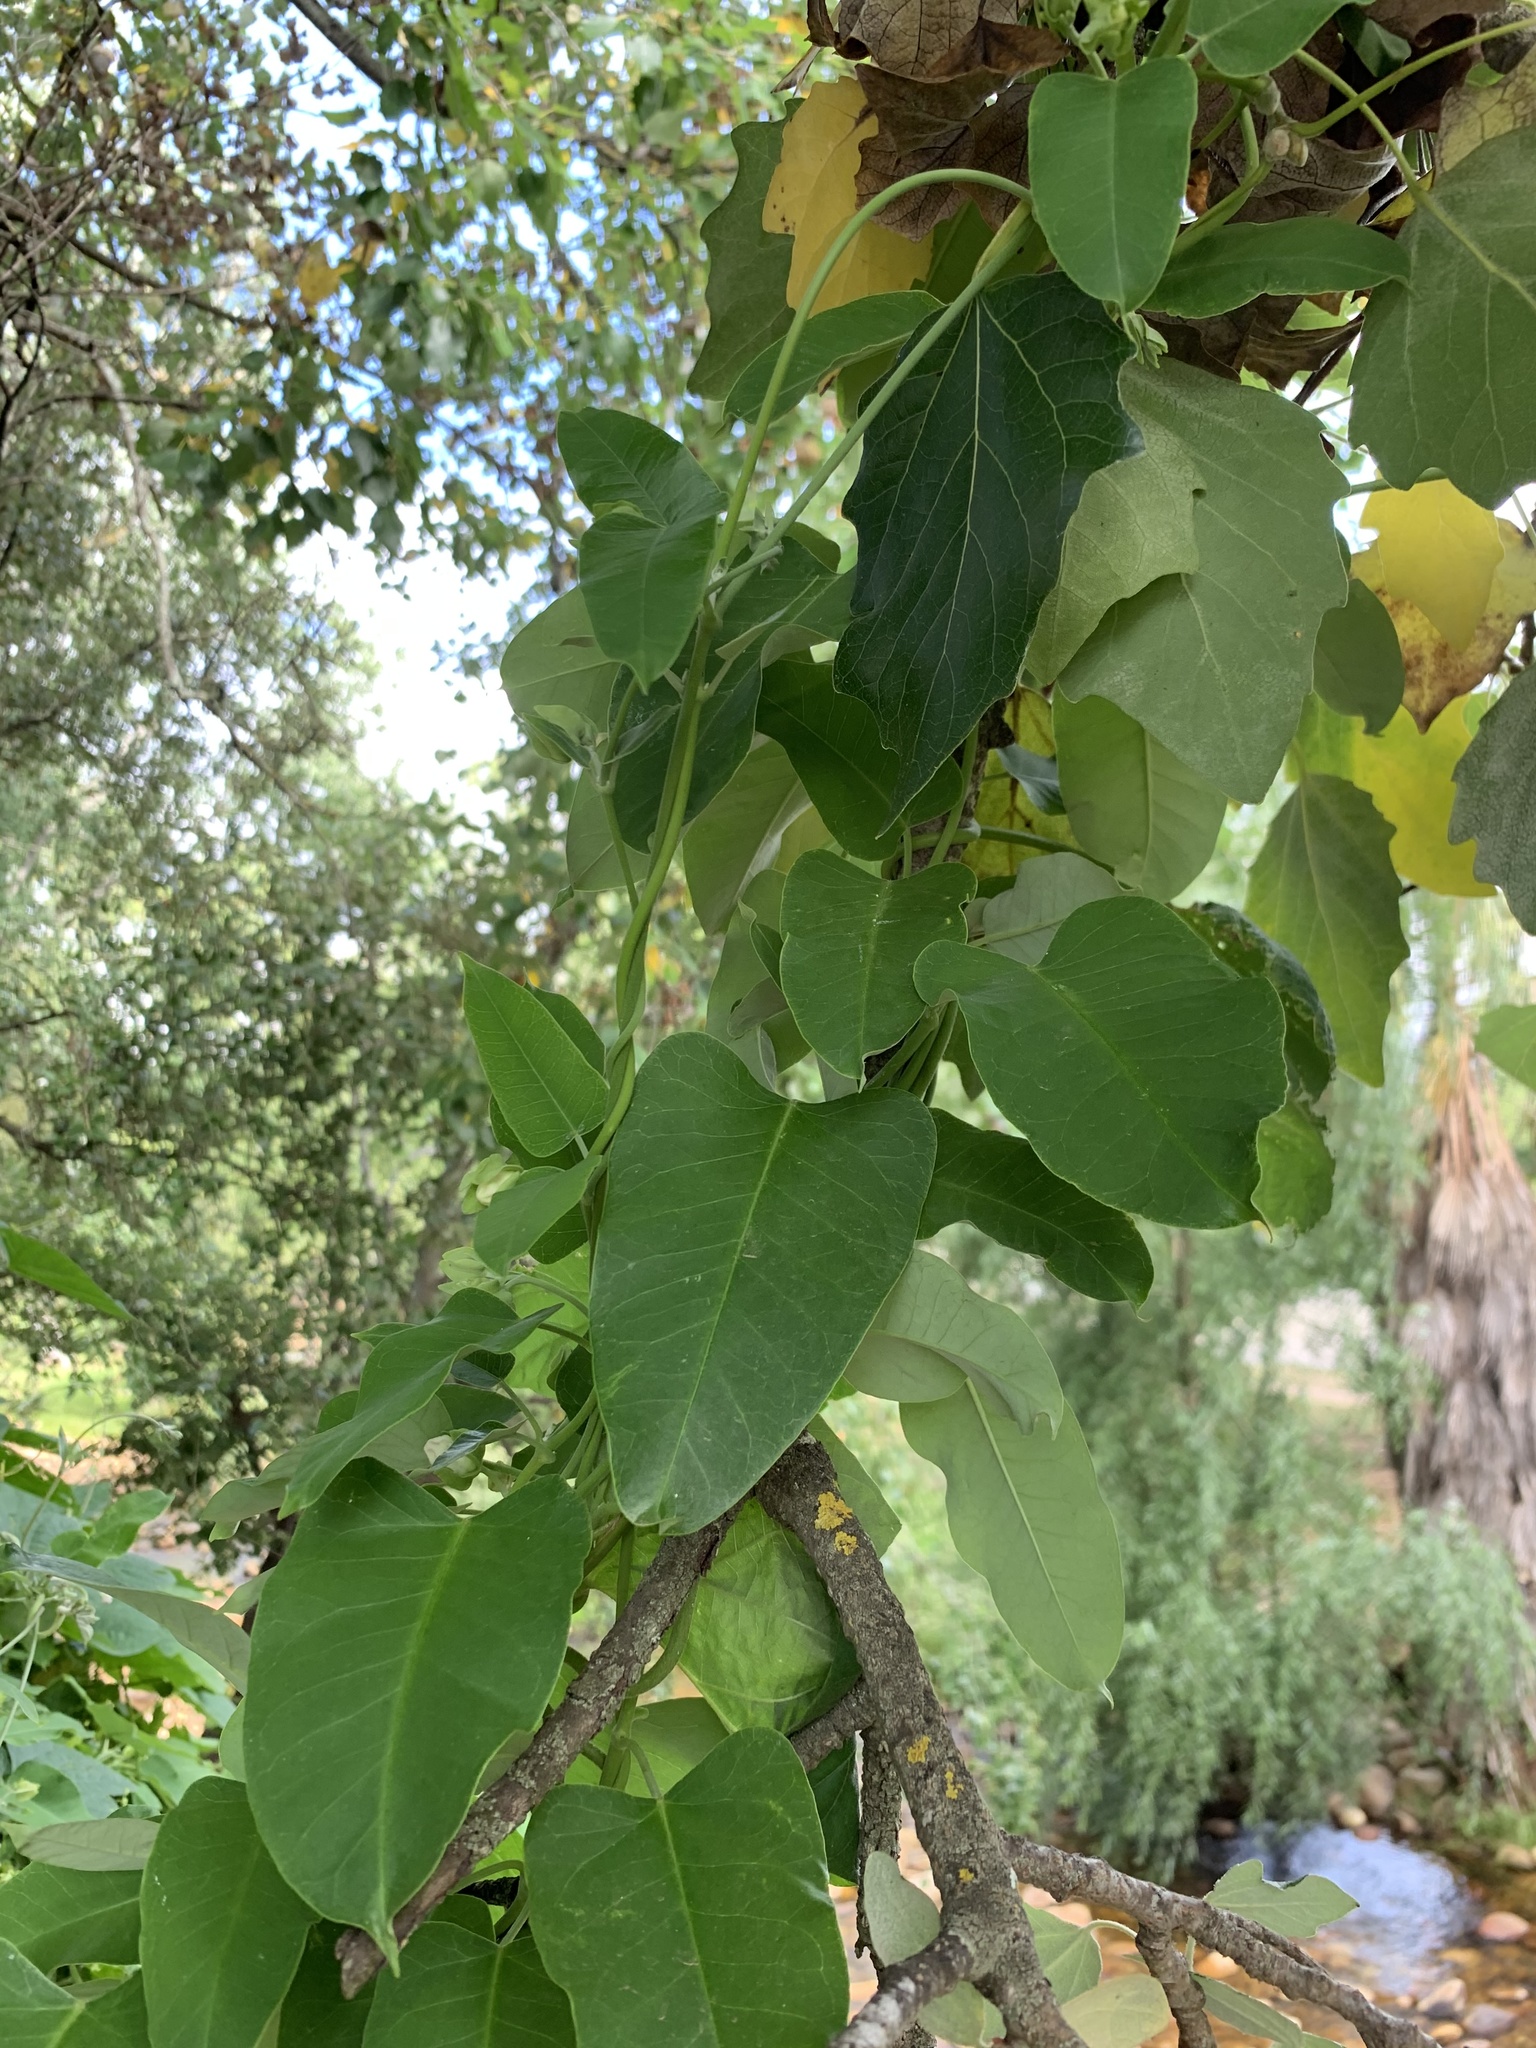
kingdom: Plantae
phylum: Tracheophyta
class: Magnoliopsida
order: Gentianales
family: Apocynaceae
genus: Araujia
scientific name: Araujia sericifera
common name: White bladderflower
